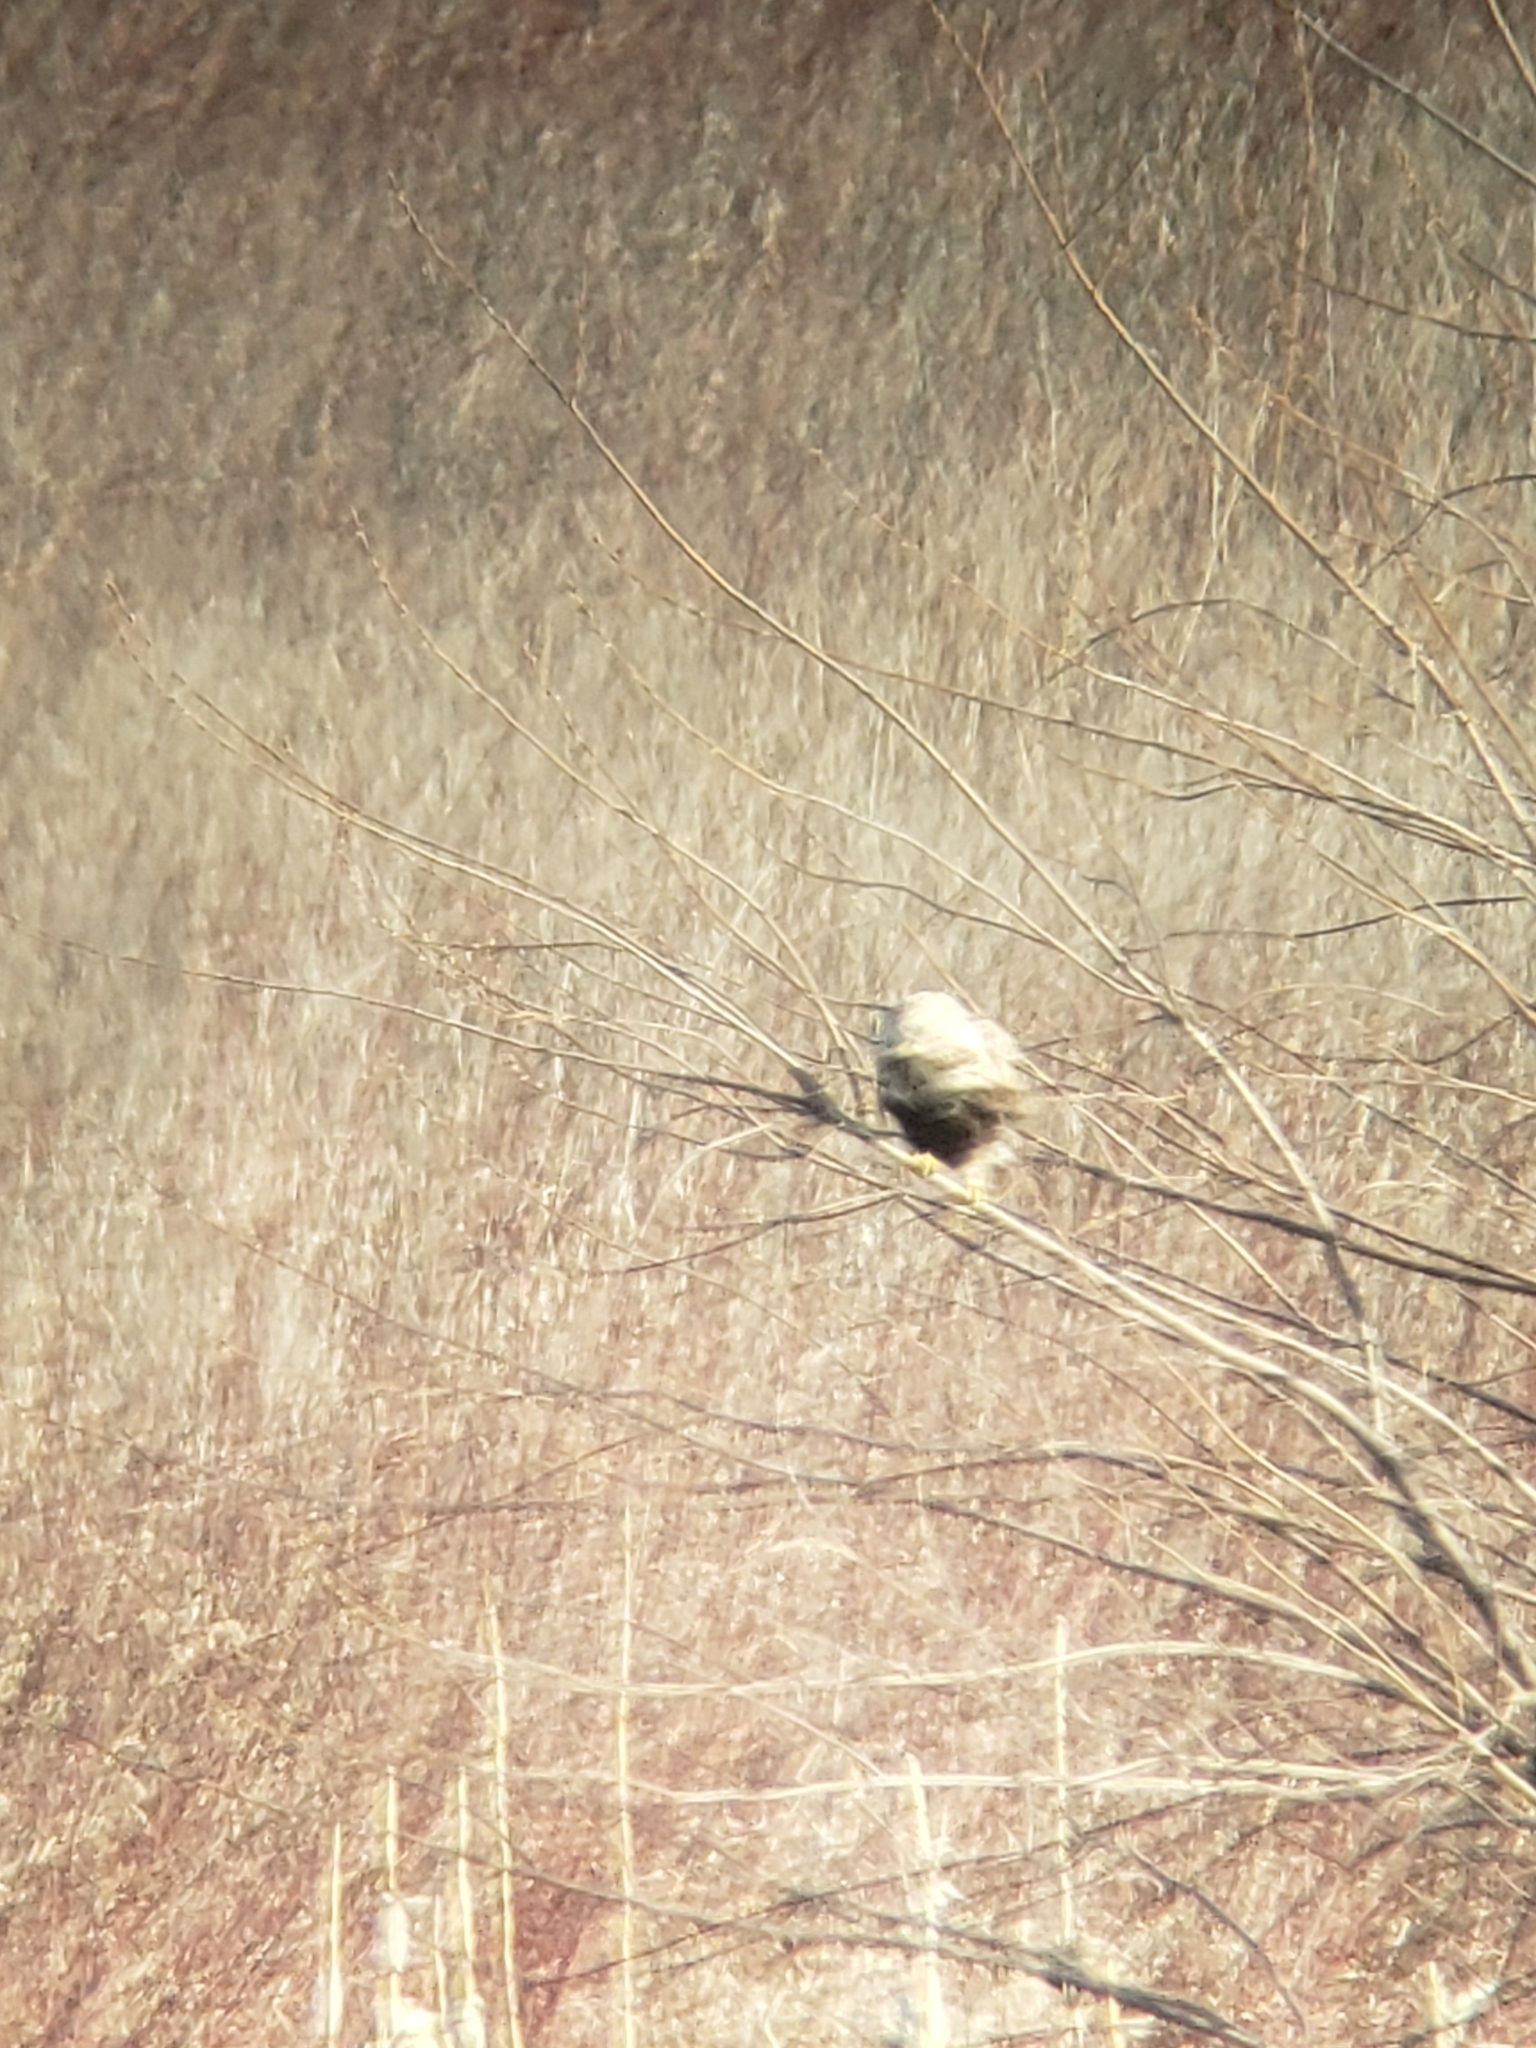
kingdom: Animalia
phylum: Chordata
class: Aves
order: Accipitriformes
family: Accipitridae
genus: Buteo
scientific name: Buteo lagopus
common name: Rough-legged buzzard
